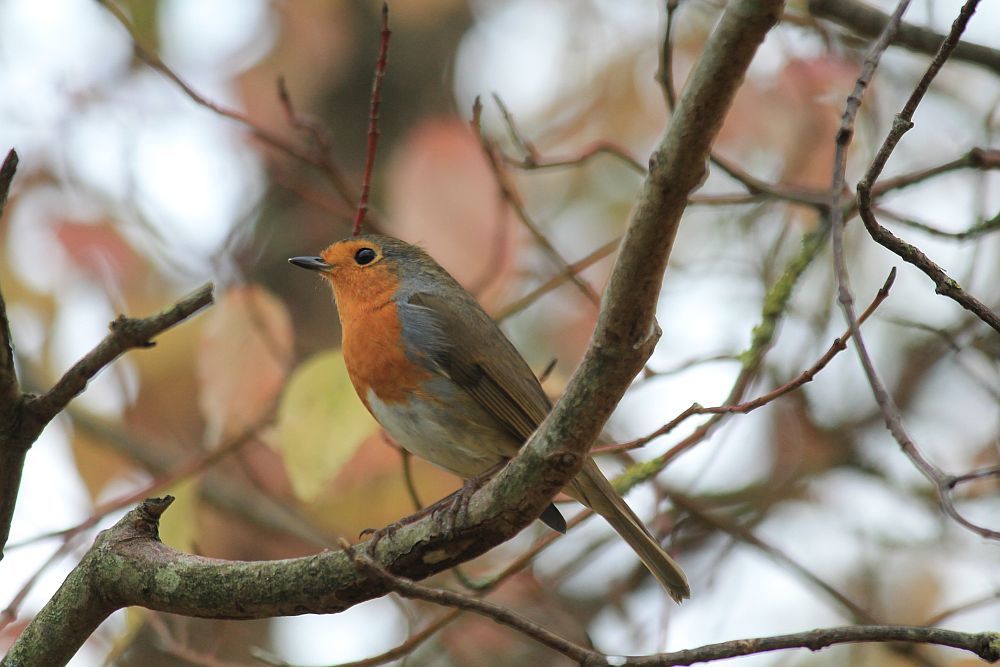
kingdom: Animalia
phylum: Chordata
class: Aves
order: Passeriformes
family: Muscicapidae
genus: Erithacus
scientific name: Erithacus rubecula
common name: European robin
